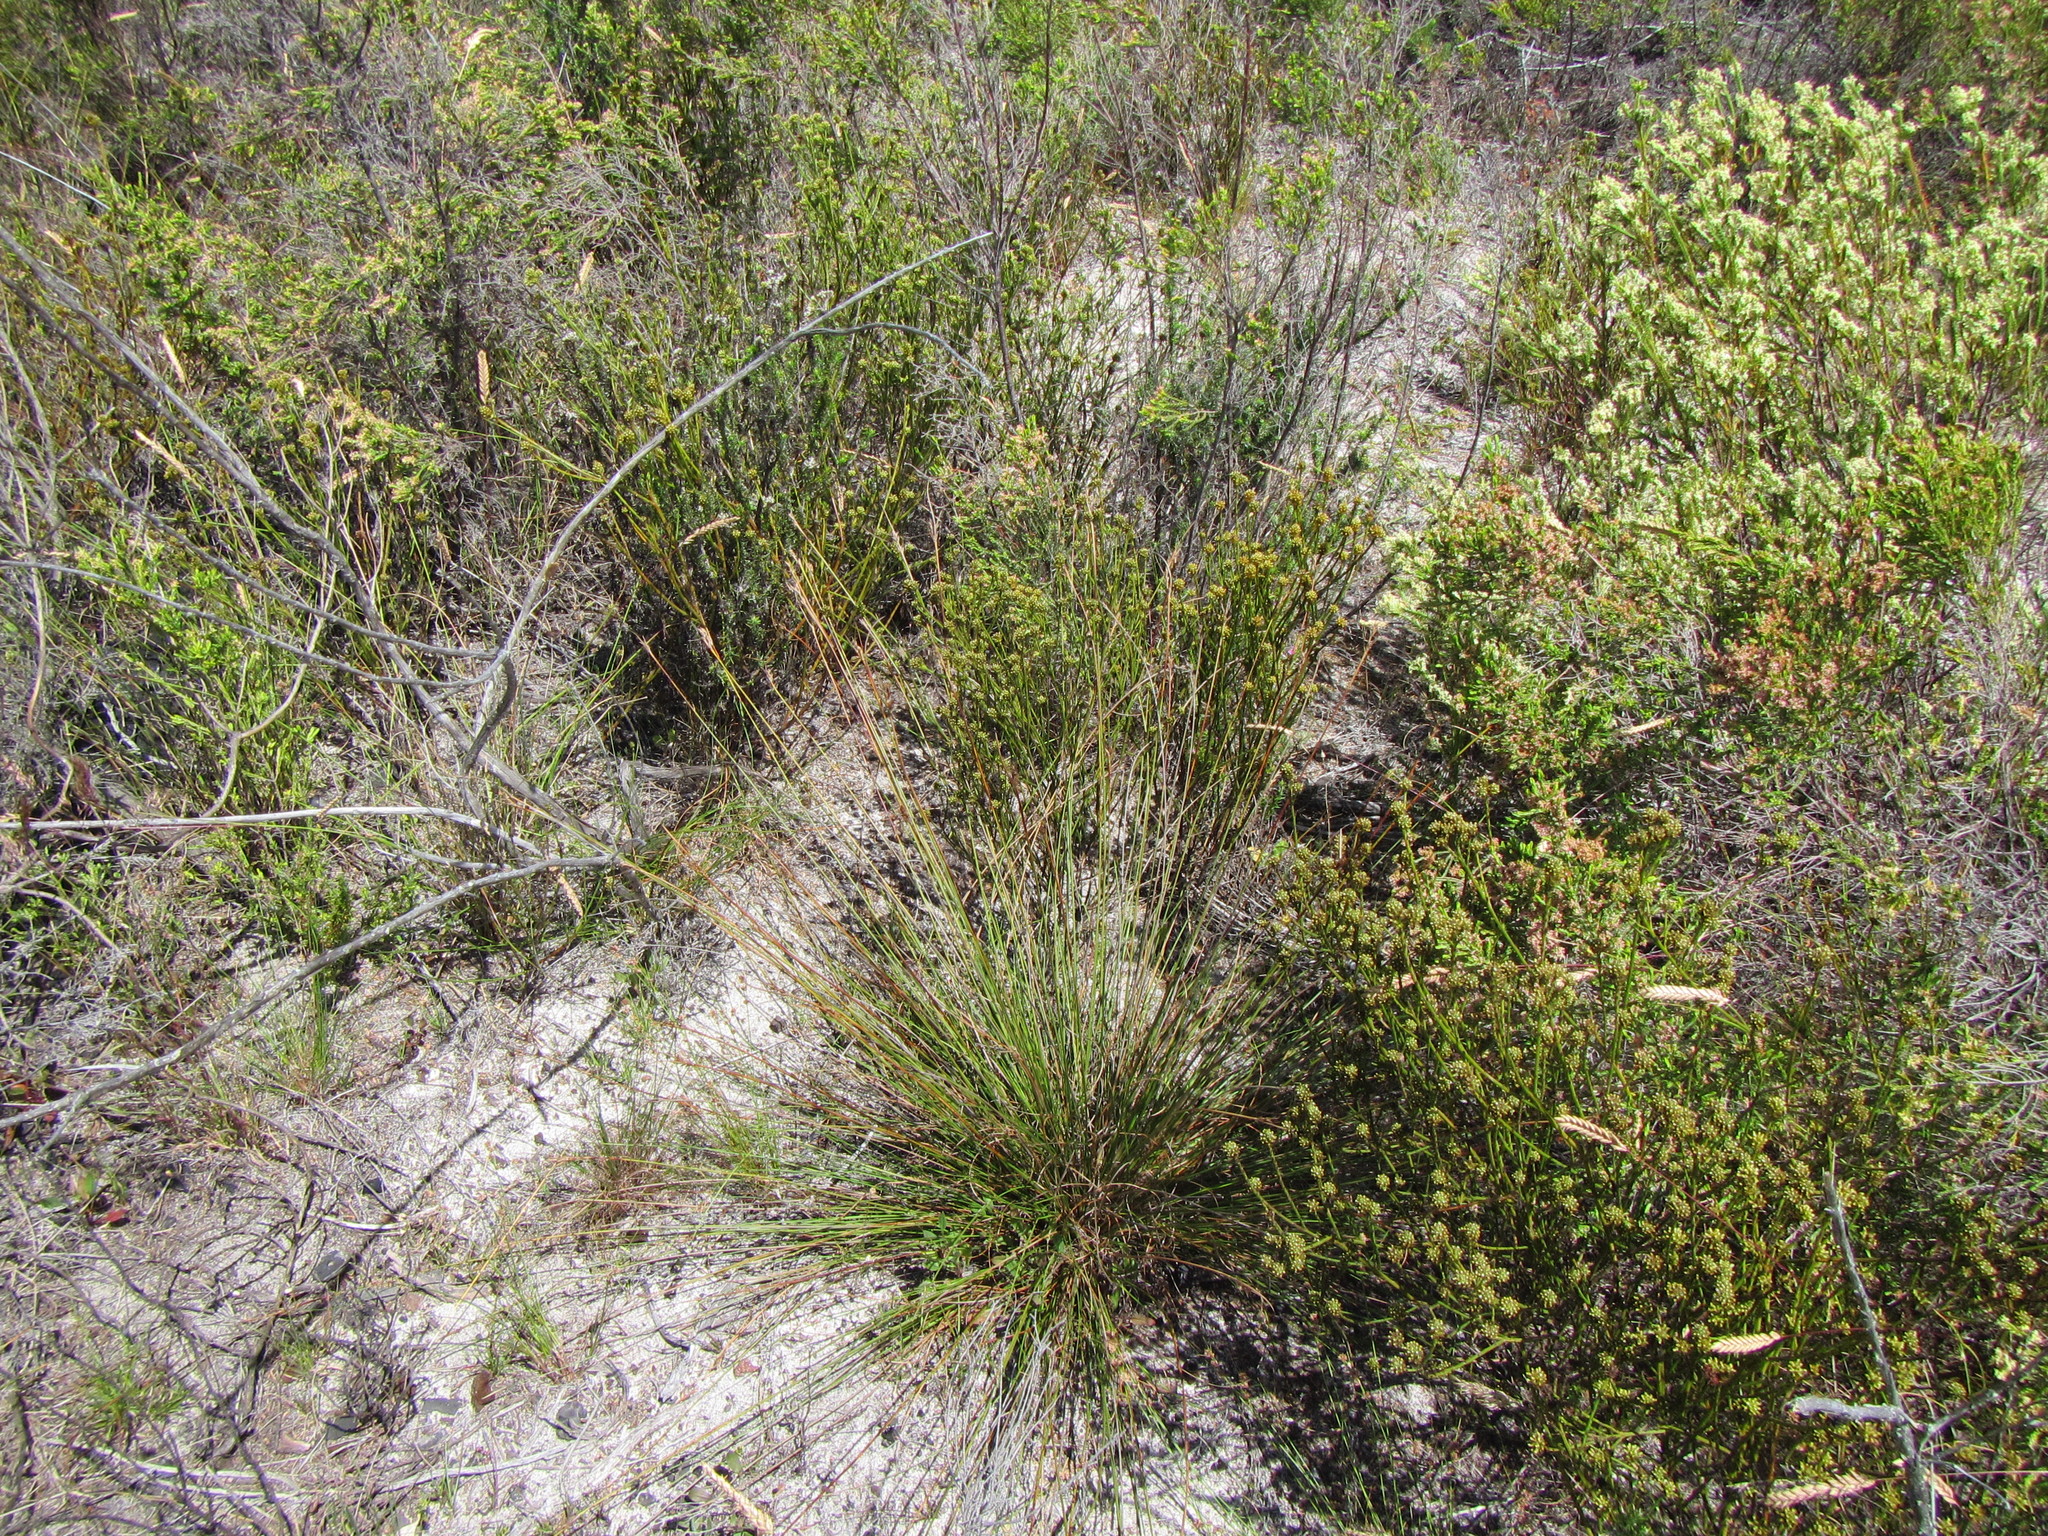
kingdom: Plantae
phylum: Tracheophyta
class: Liliopsida
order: Poales
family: Cyperaceae
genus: Schoenus
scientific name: Schoenus compar
